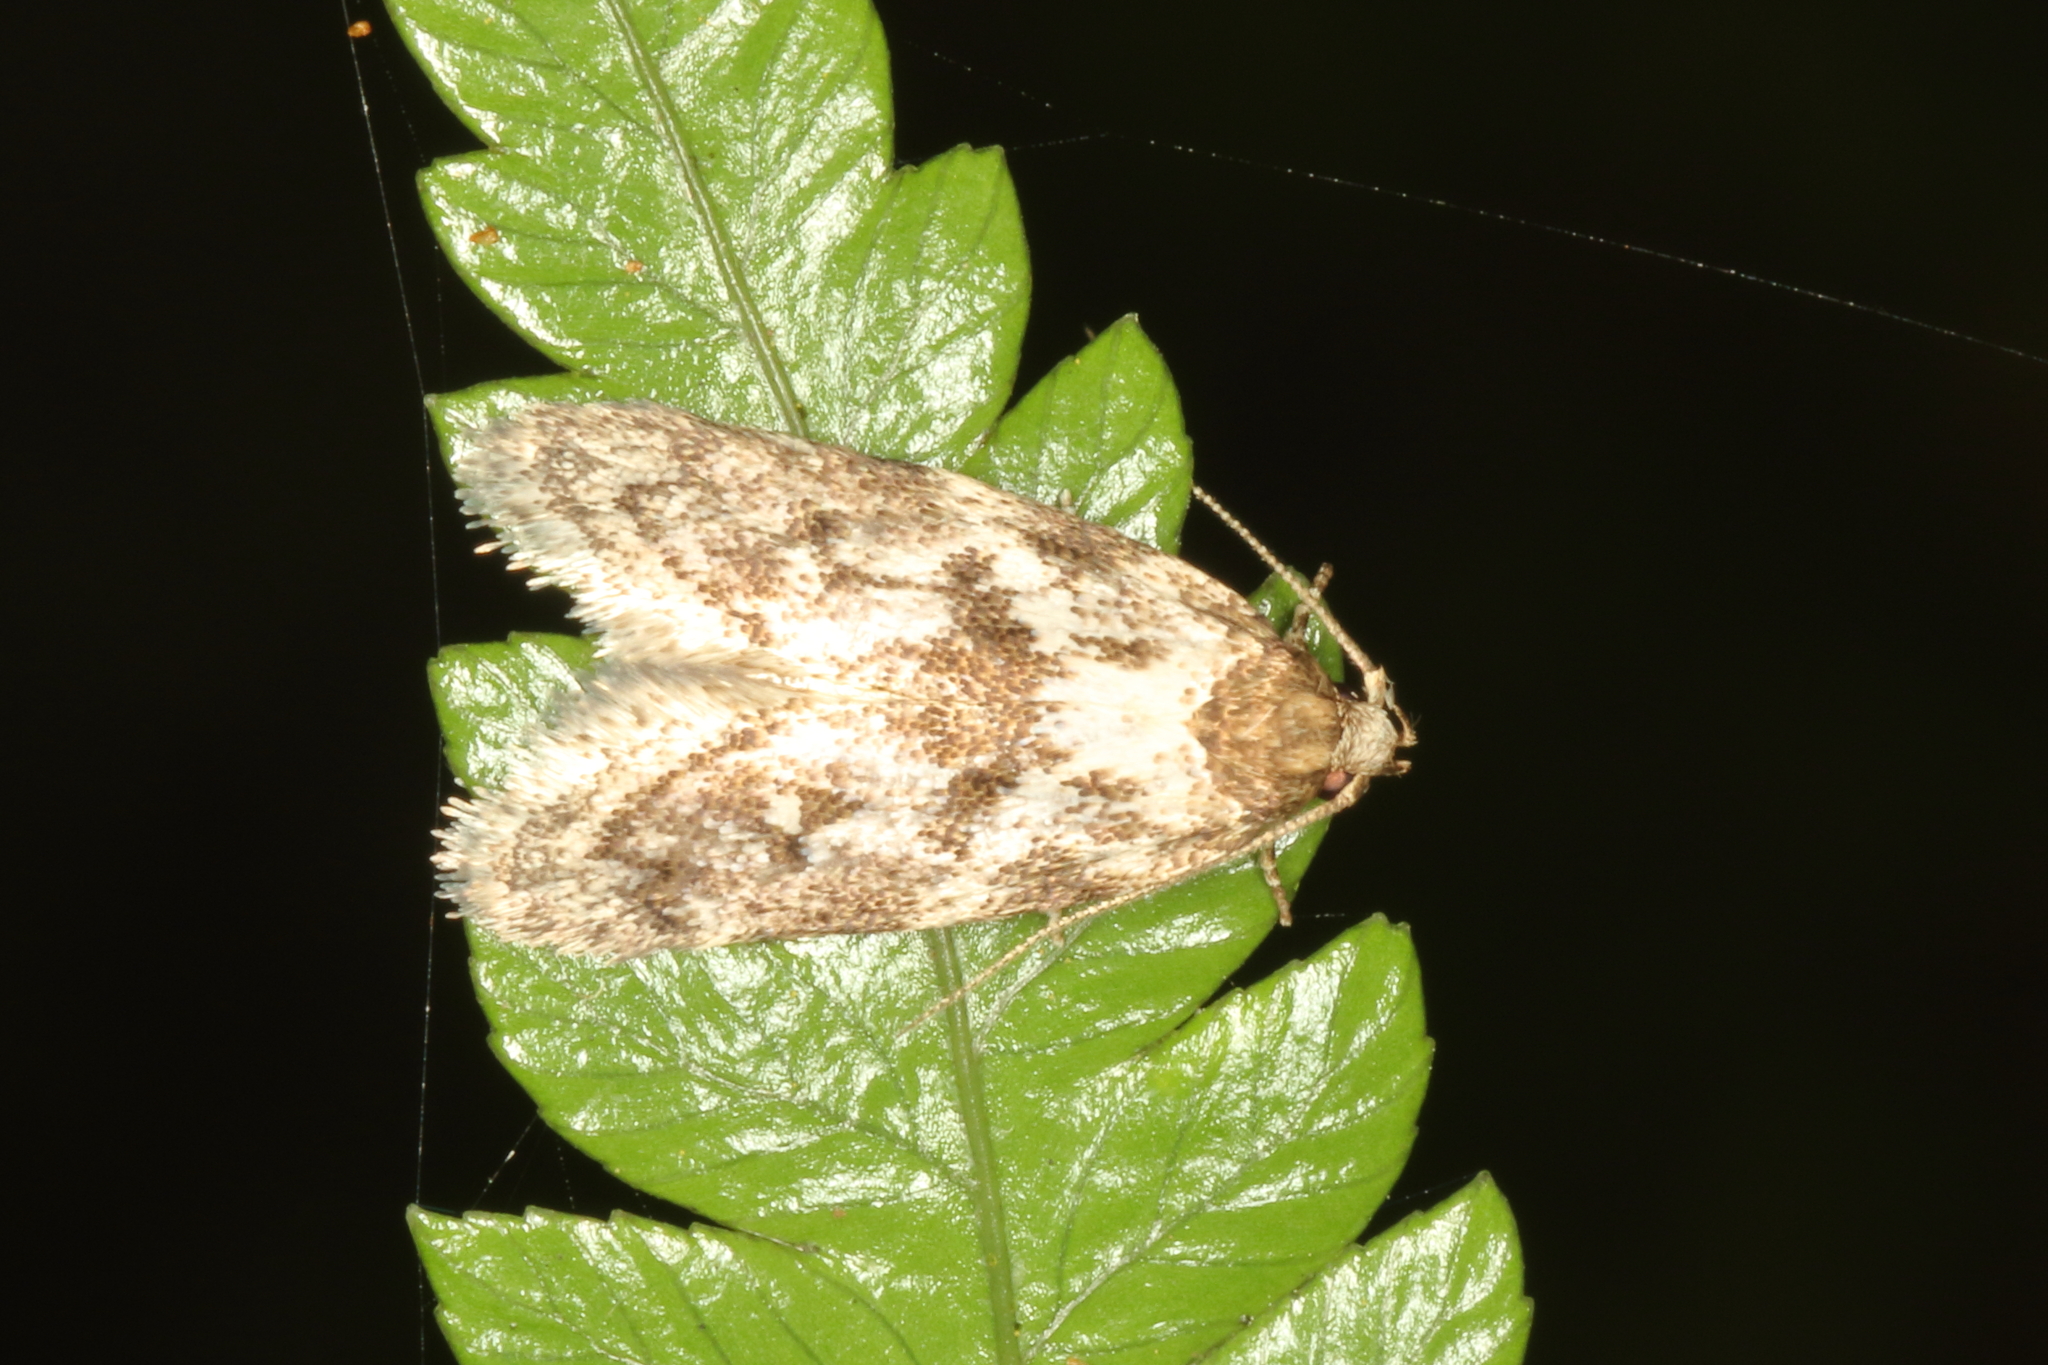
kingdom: Animalia
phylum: Arthropoda
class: Insecta
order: Lepidoptera
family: Oecophoridae
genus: Tingena
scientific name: Tingena clarkei
